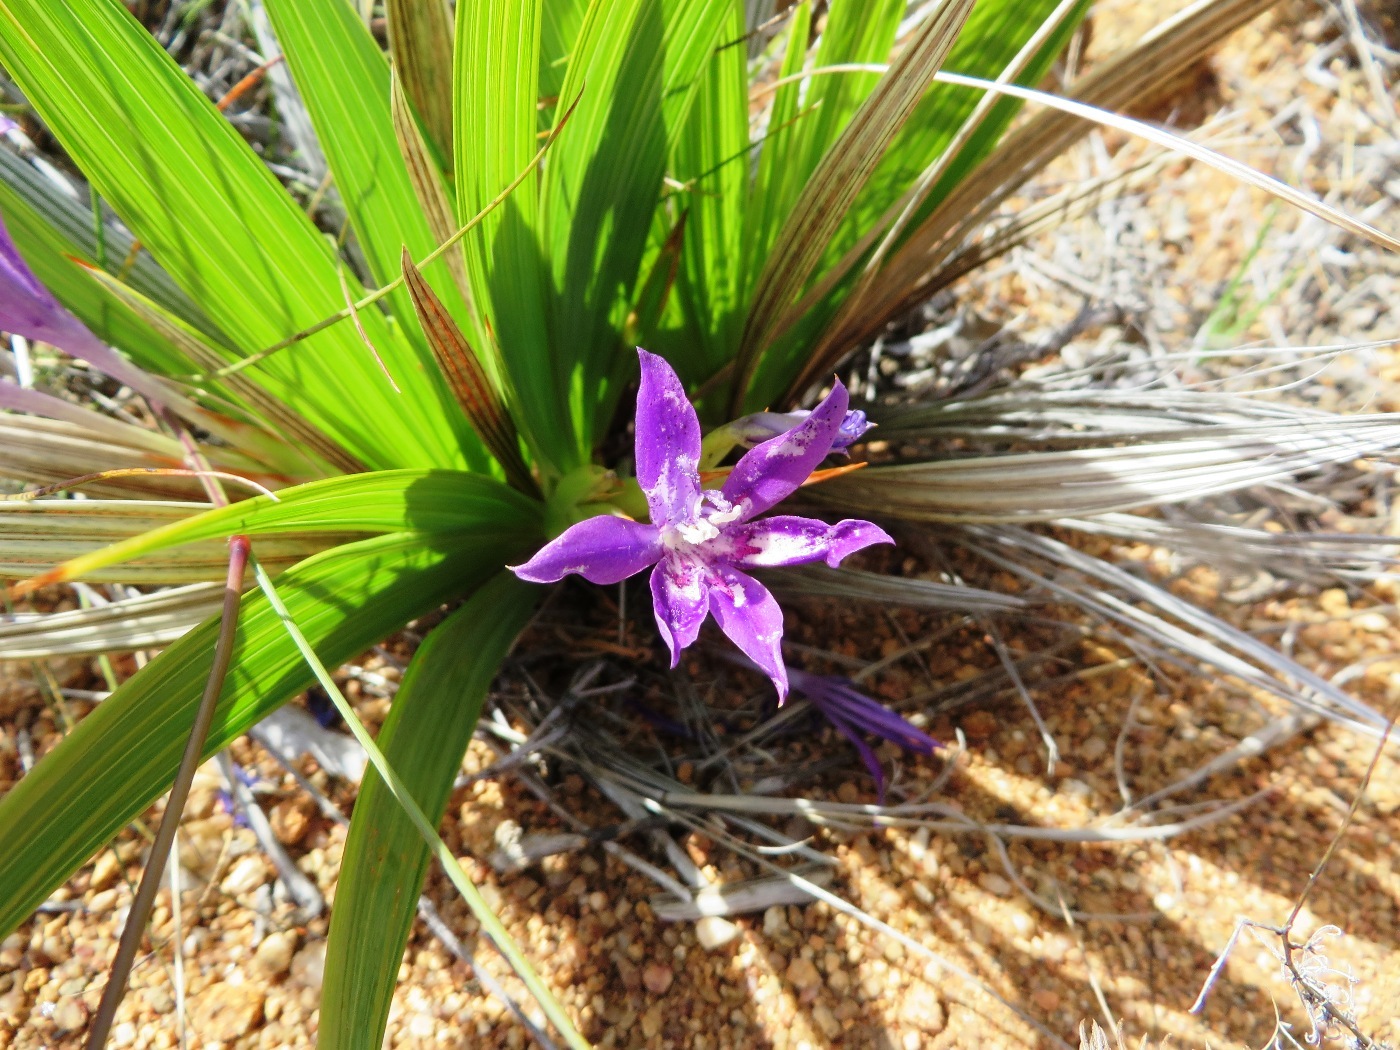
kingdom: Plantae
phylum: Tracheophyta
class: Liliopsida
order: Asparagales
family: Iridaceae
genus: Babiana
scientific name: Babiana dregei
